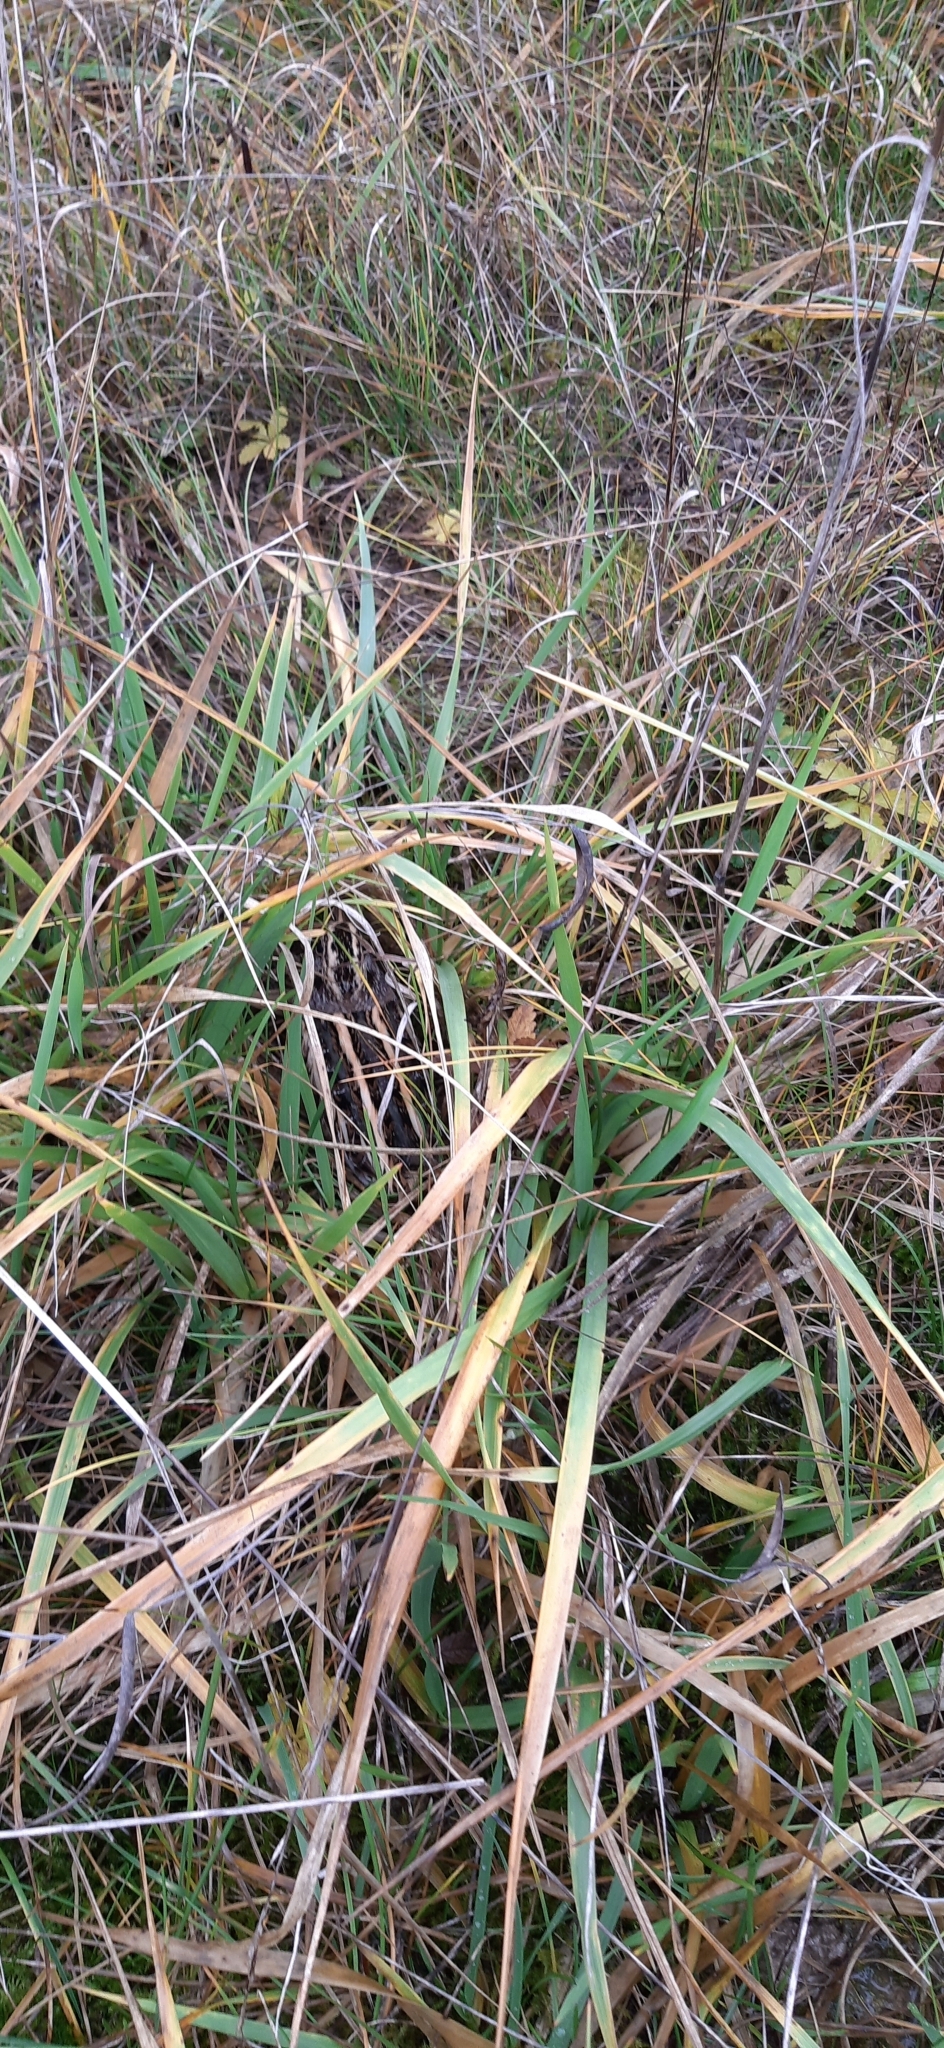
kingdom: Animalia
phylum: Chordata
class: Aves
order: Charadriiformes
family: Scolopacidae
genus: Lymnocryptes
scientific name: Lymnocryptes minimus
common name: Jack snipe
